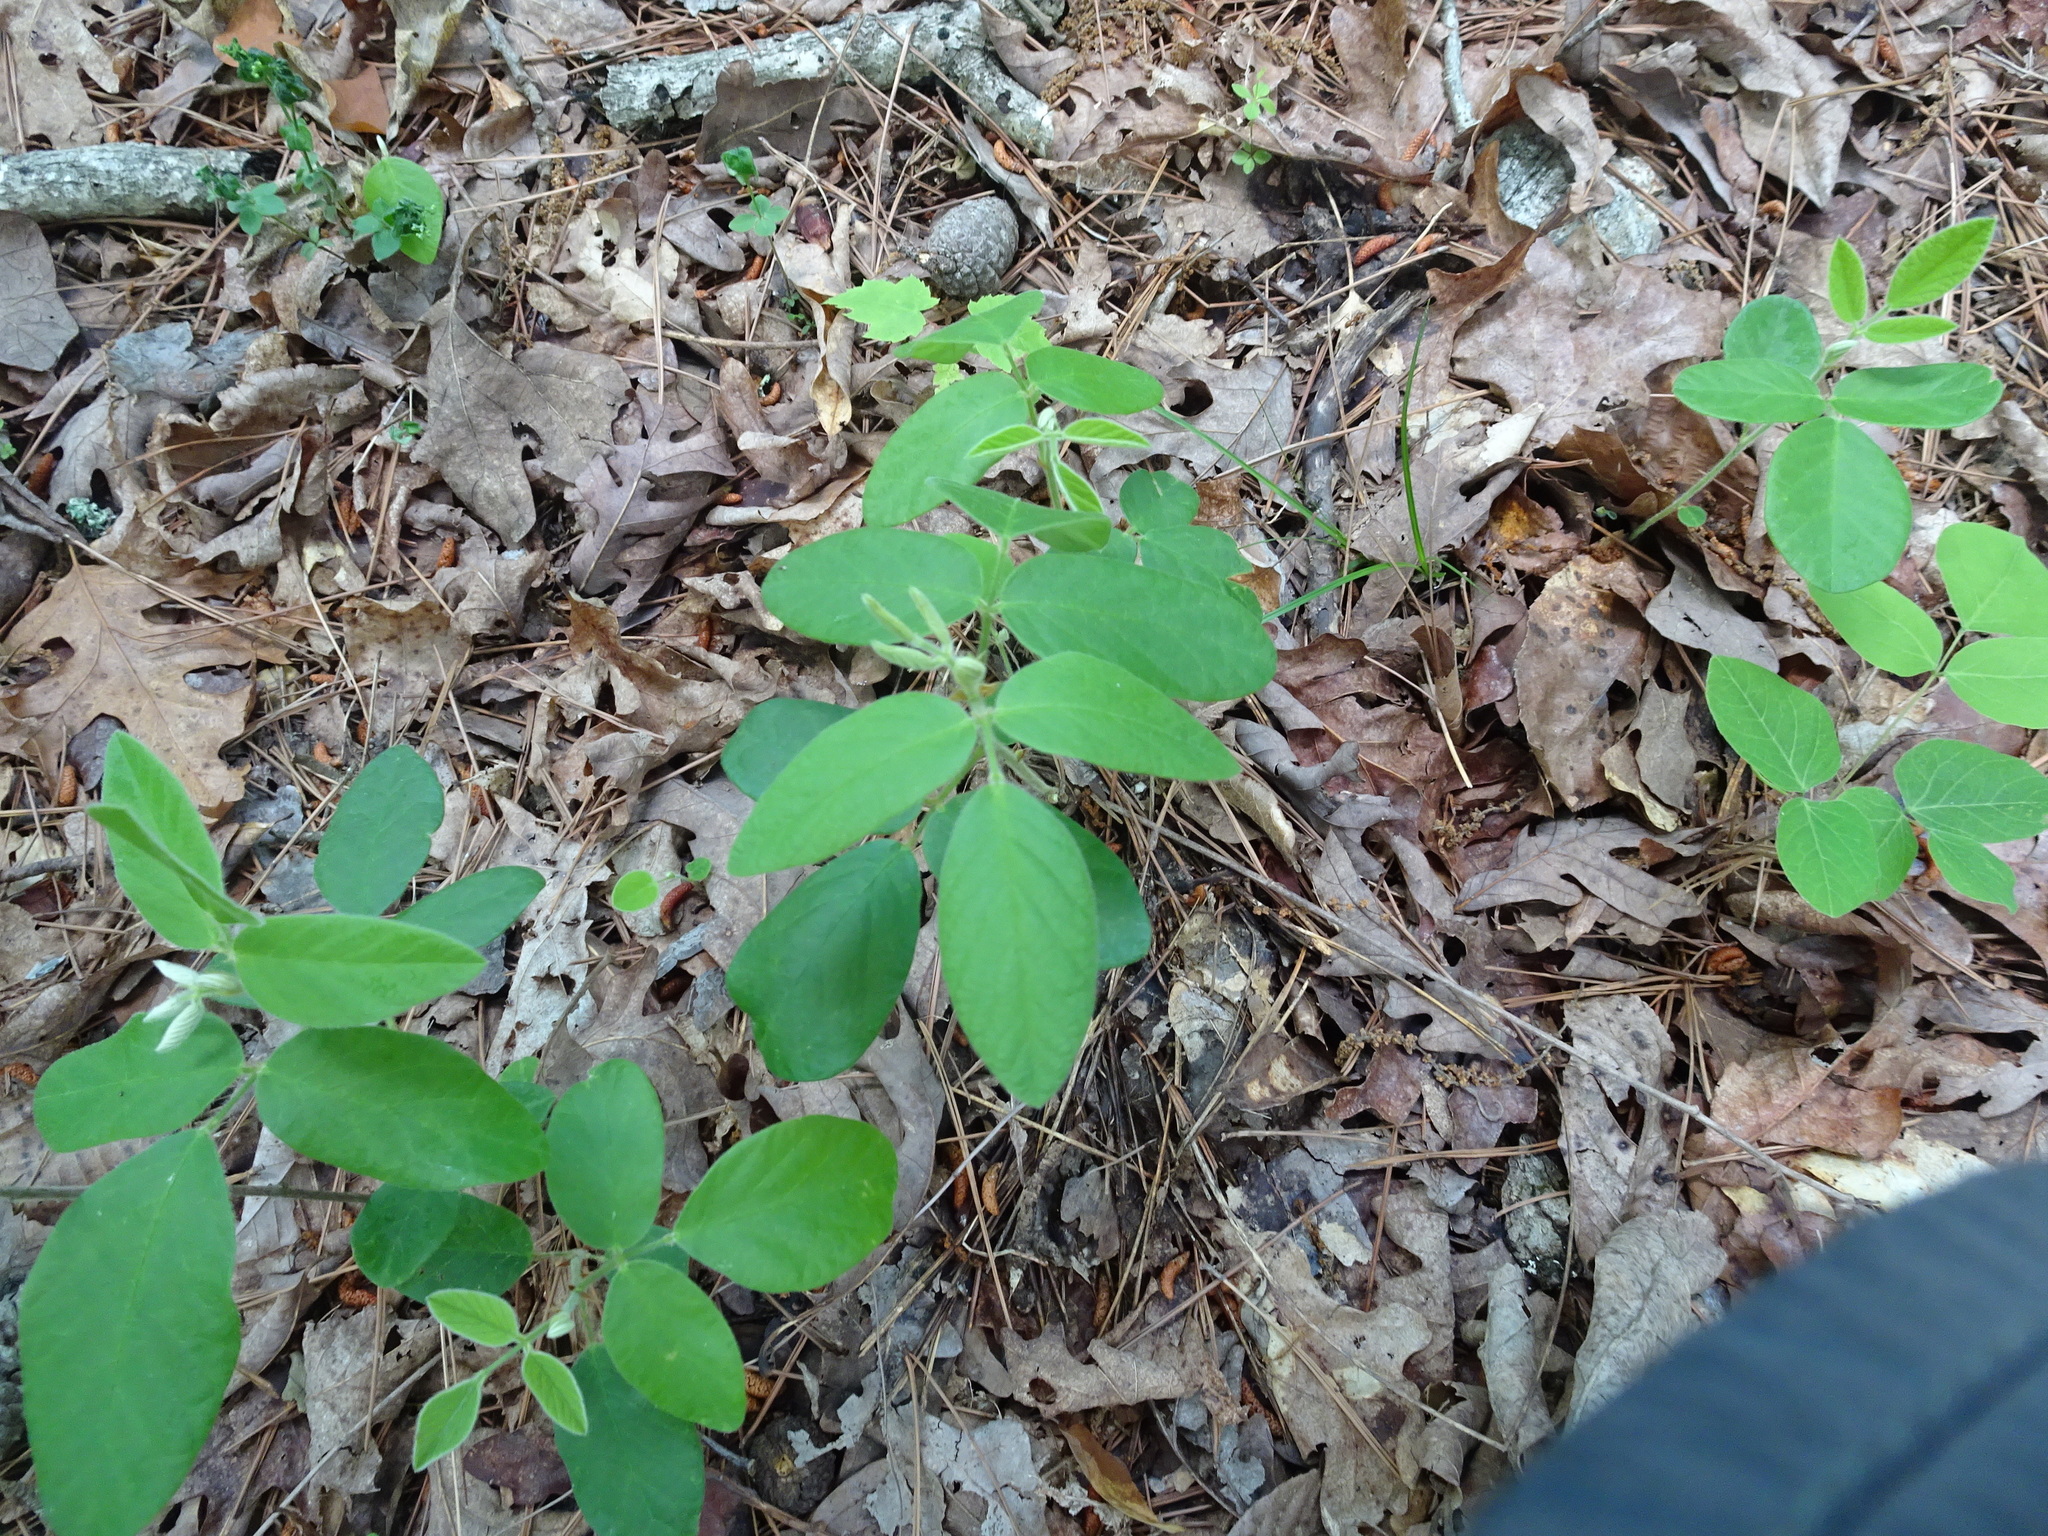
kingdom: Plantae
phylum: Tracheophyta
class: Magnoliopsida
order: Fabales
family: Fabaceae
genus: Desmodium
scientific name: Desmodium nuttallii
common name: Nuttall's tick trefoil
